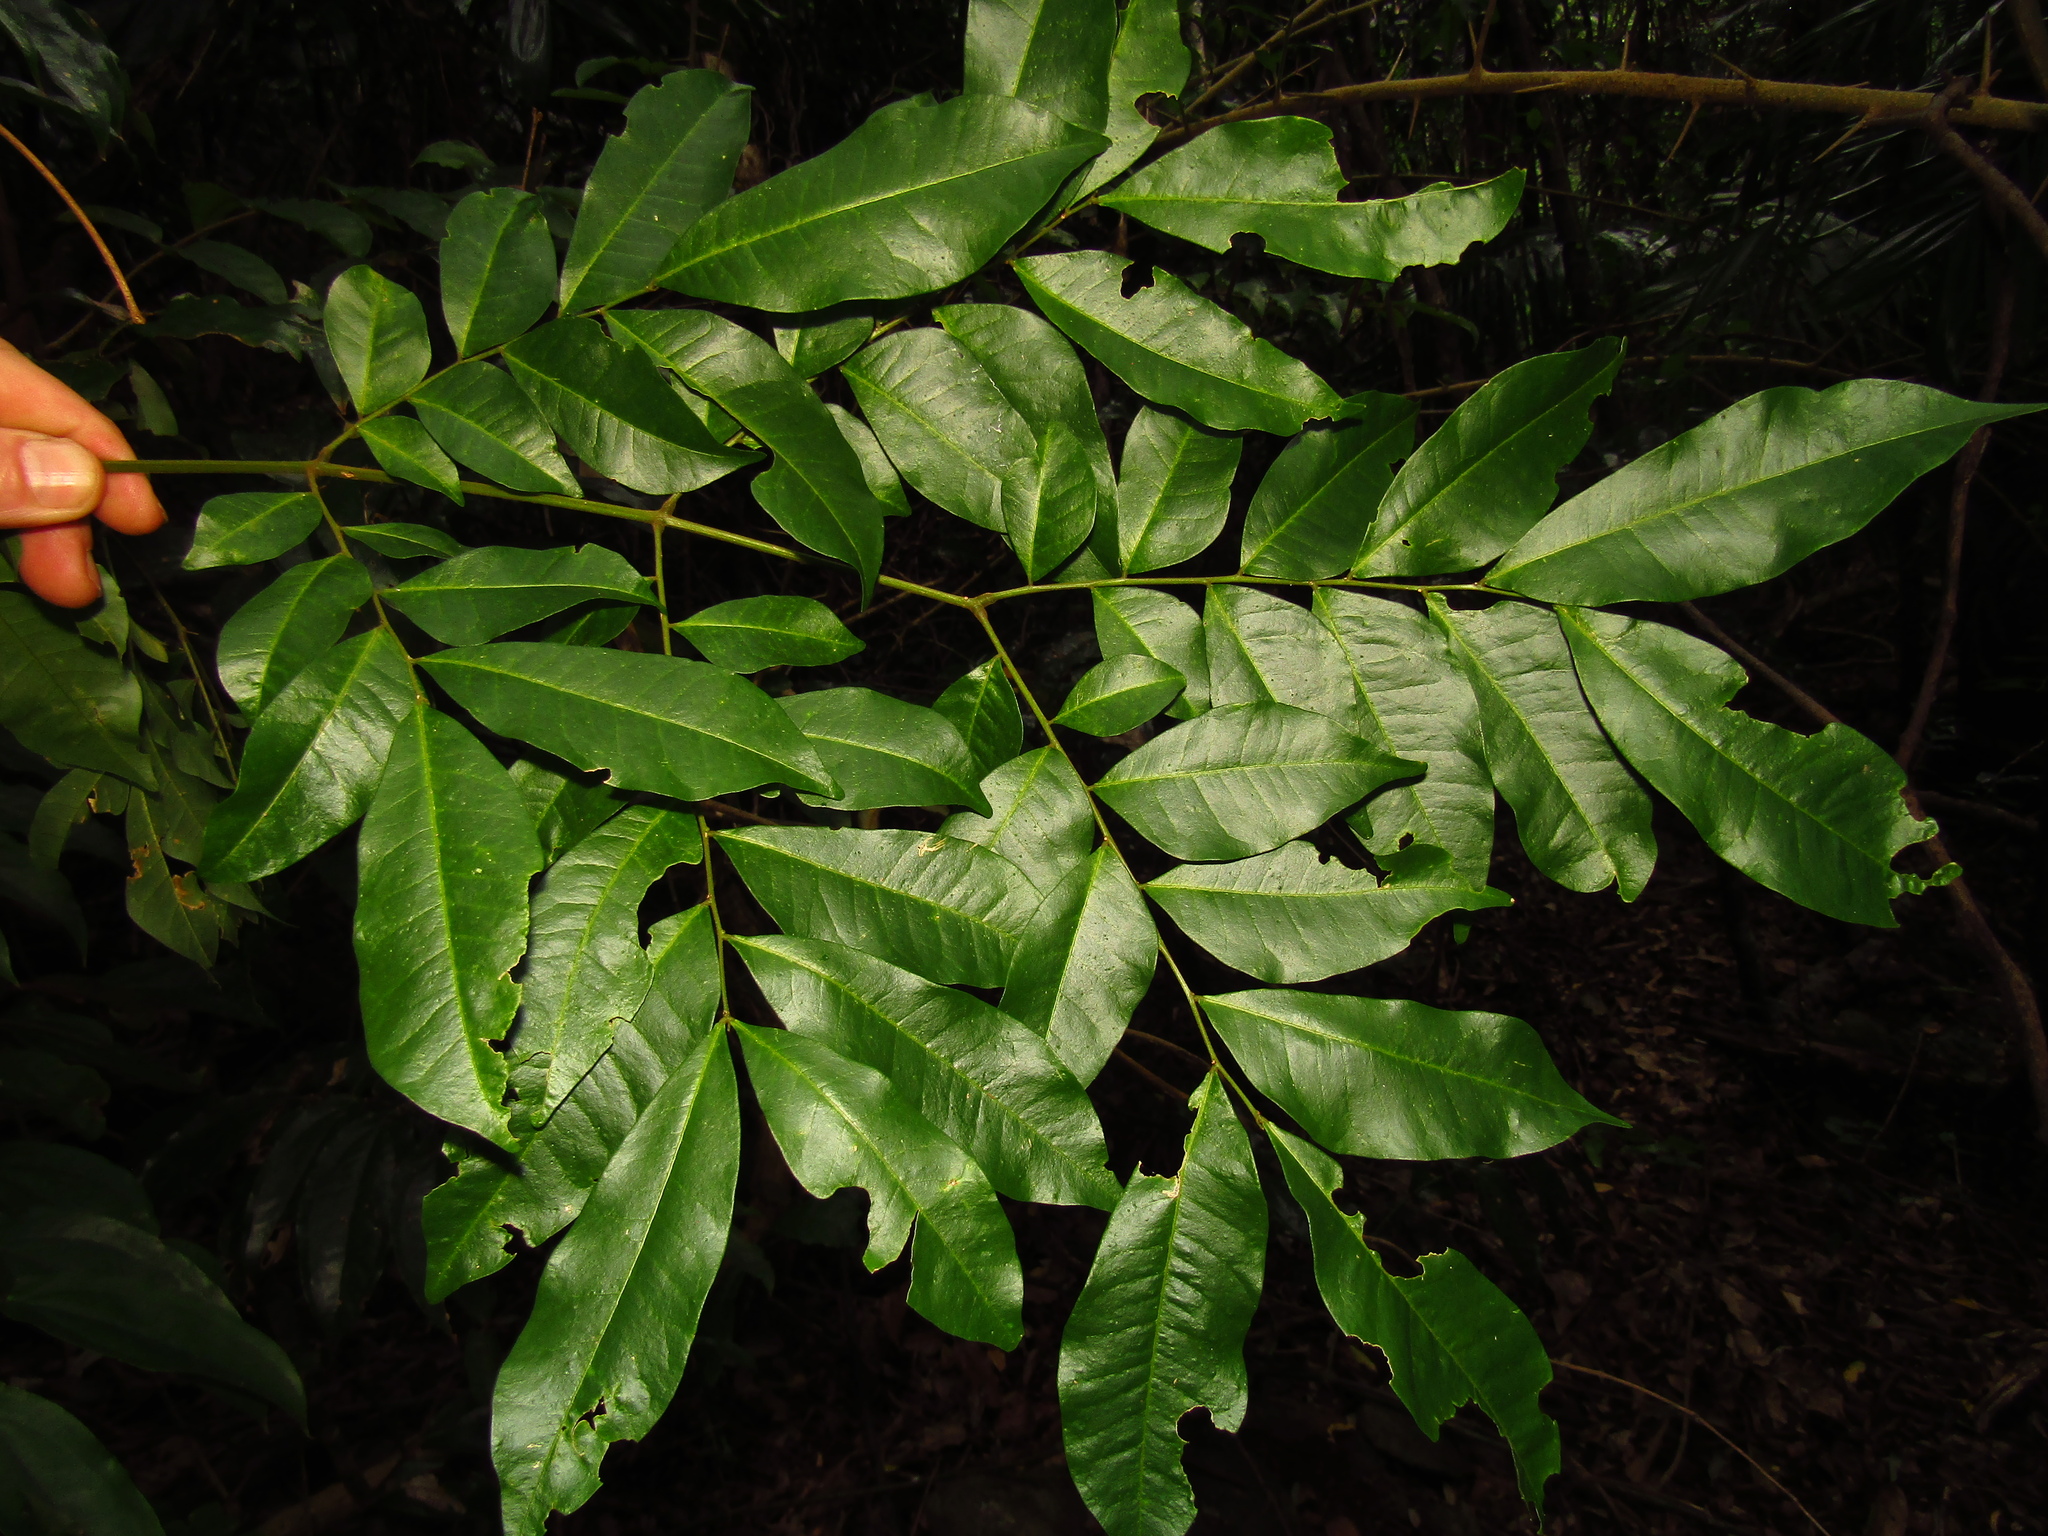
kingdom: Plantae
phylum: Tracheophyta
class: Magnoliopsida
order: Fabales
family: Fabaceae
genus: Pararchidendron
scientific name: Pararchidendron pruinosum
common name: Tulip siris
